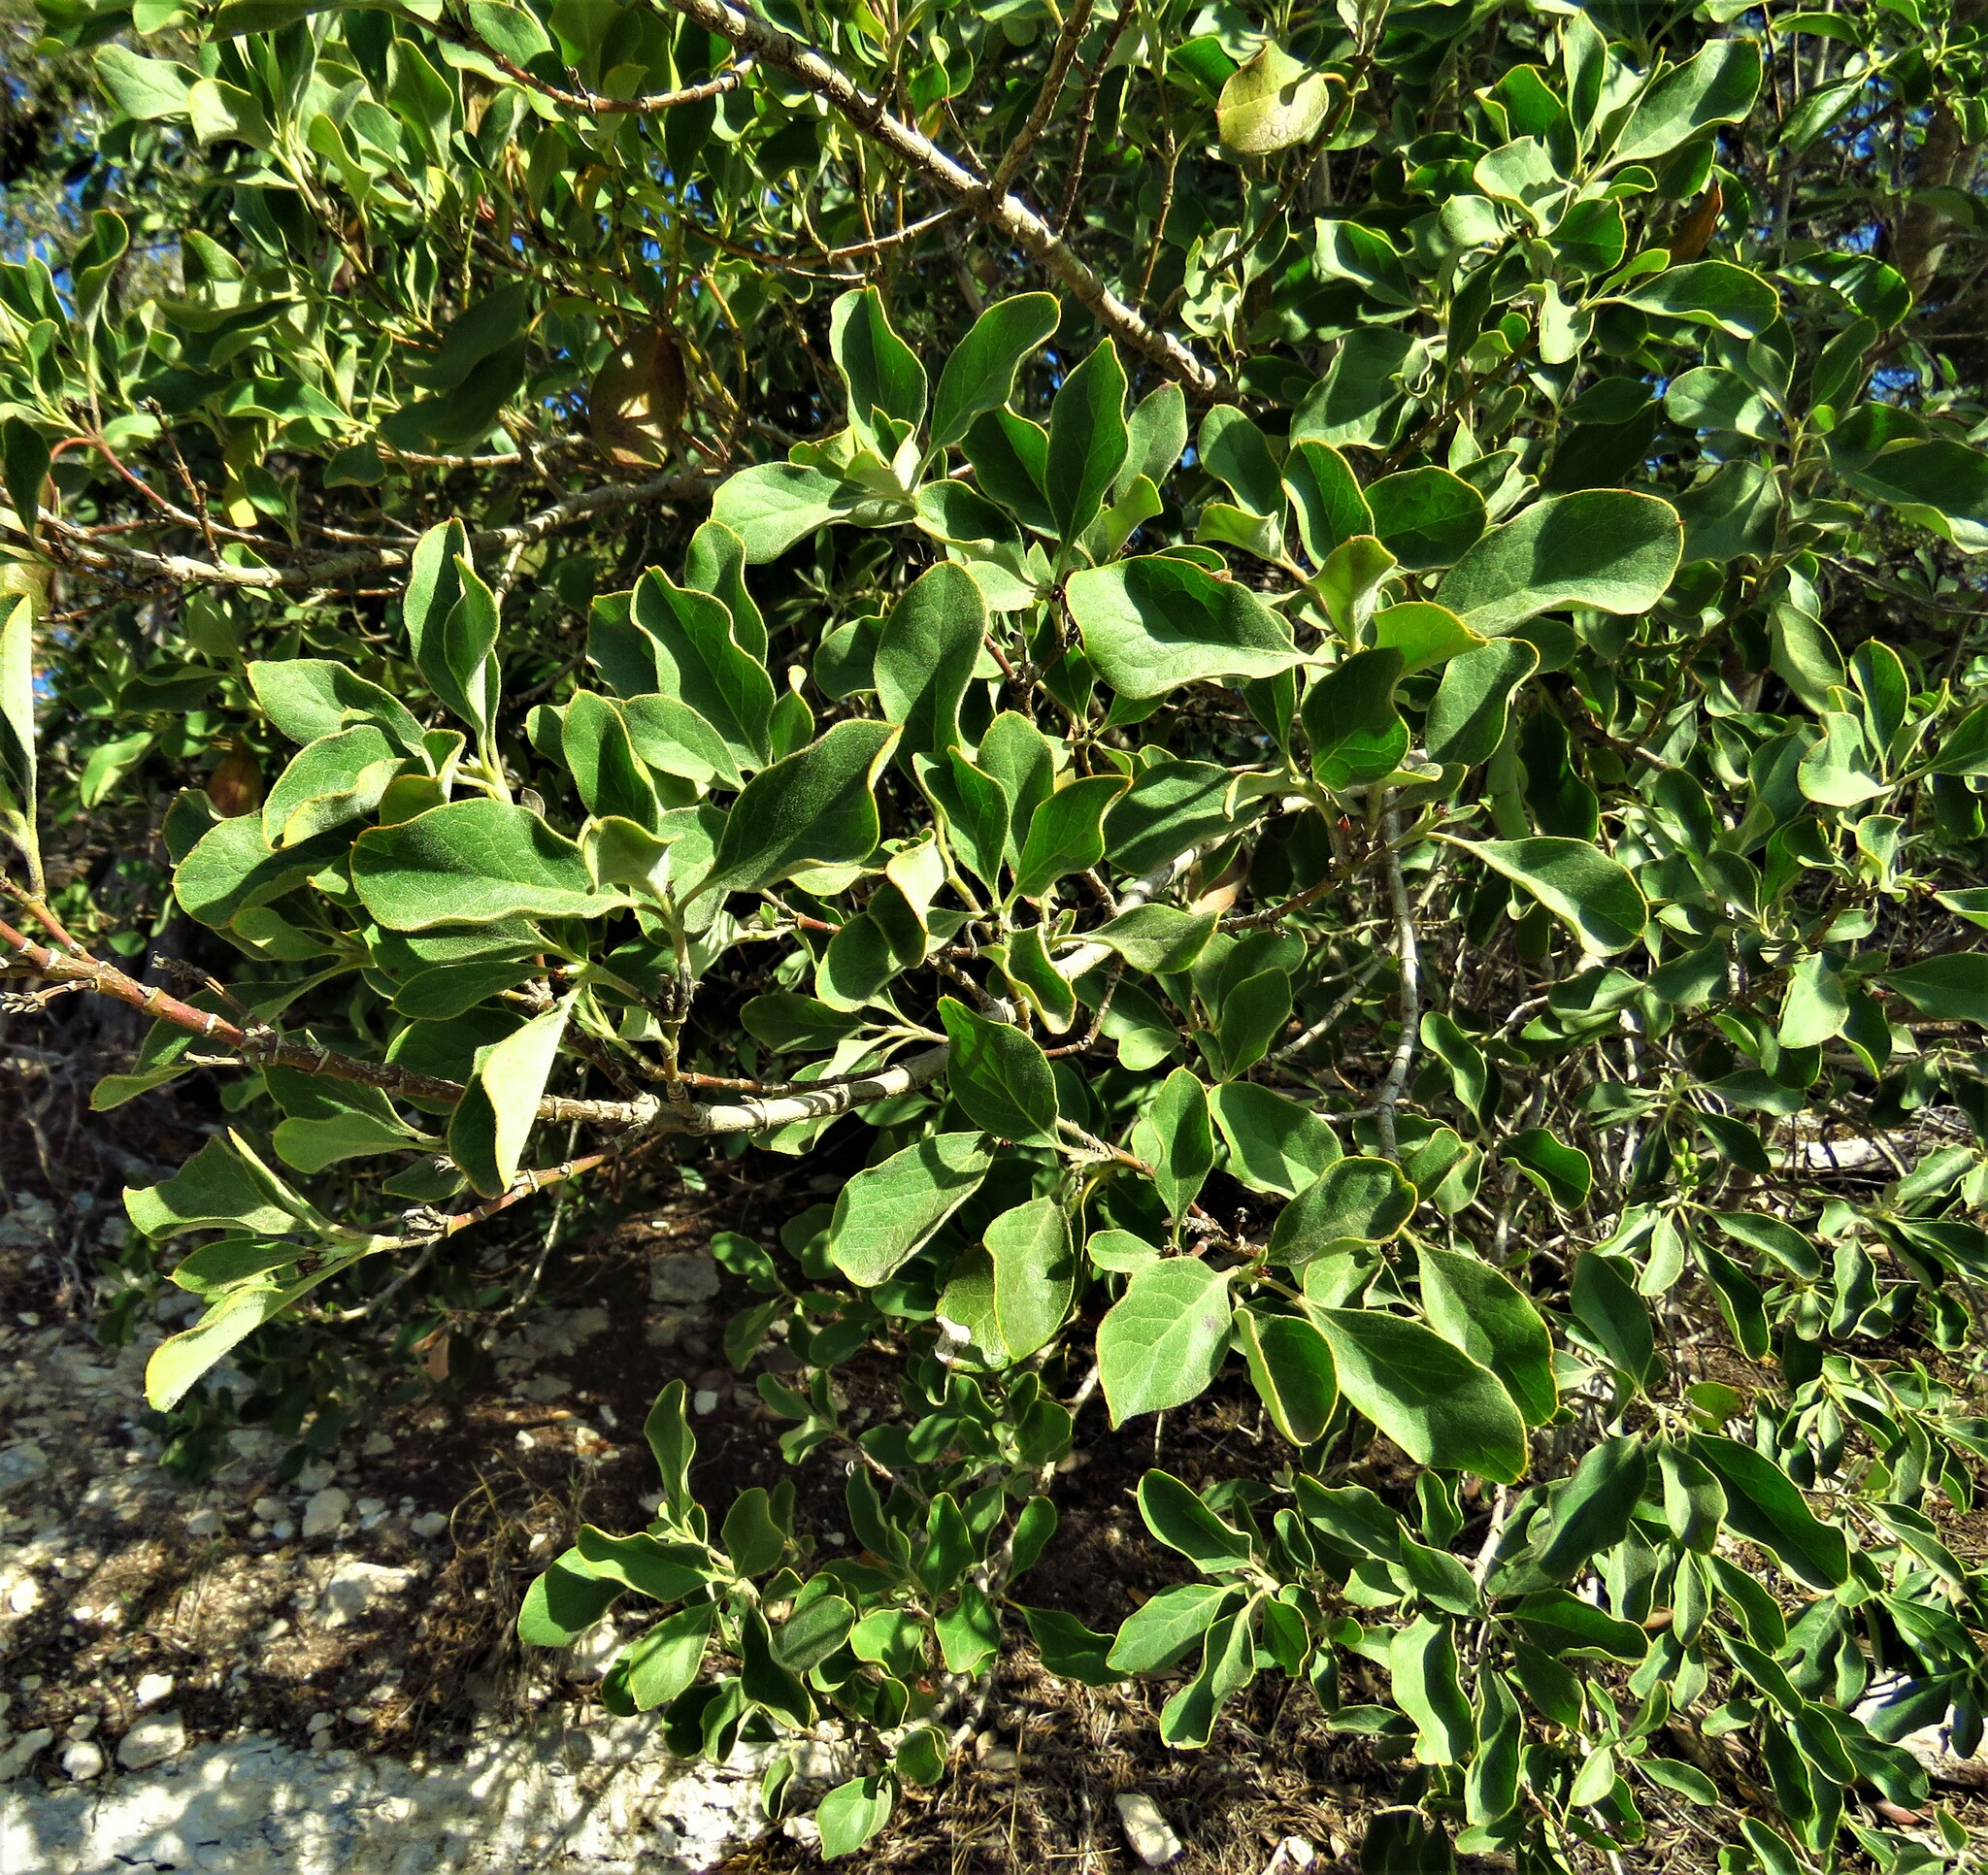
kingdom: Plantae
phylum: Tracheophyta
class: Magnoliopsida
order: Garryales
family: Garryaceae
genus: Garrya
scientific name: Garrya lindheimeri
